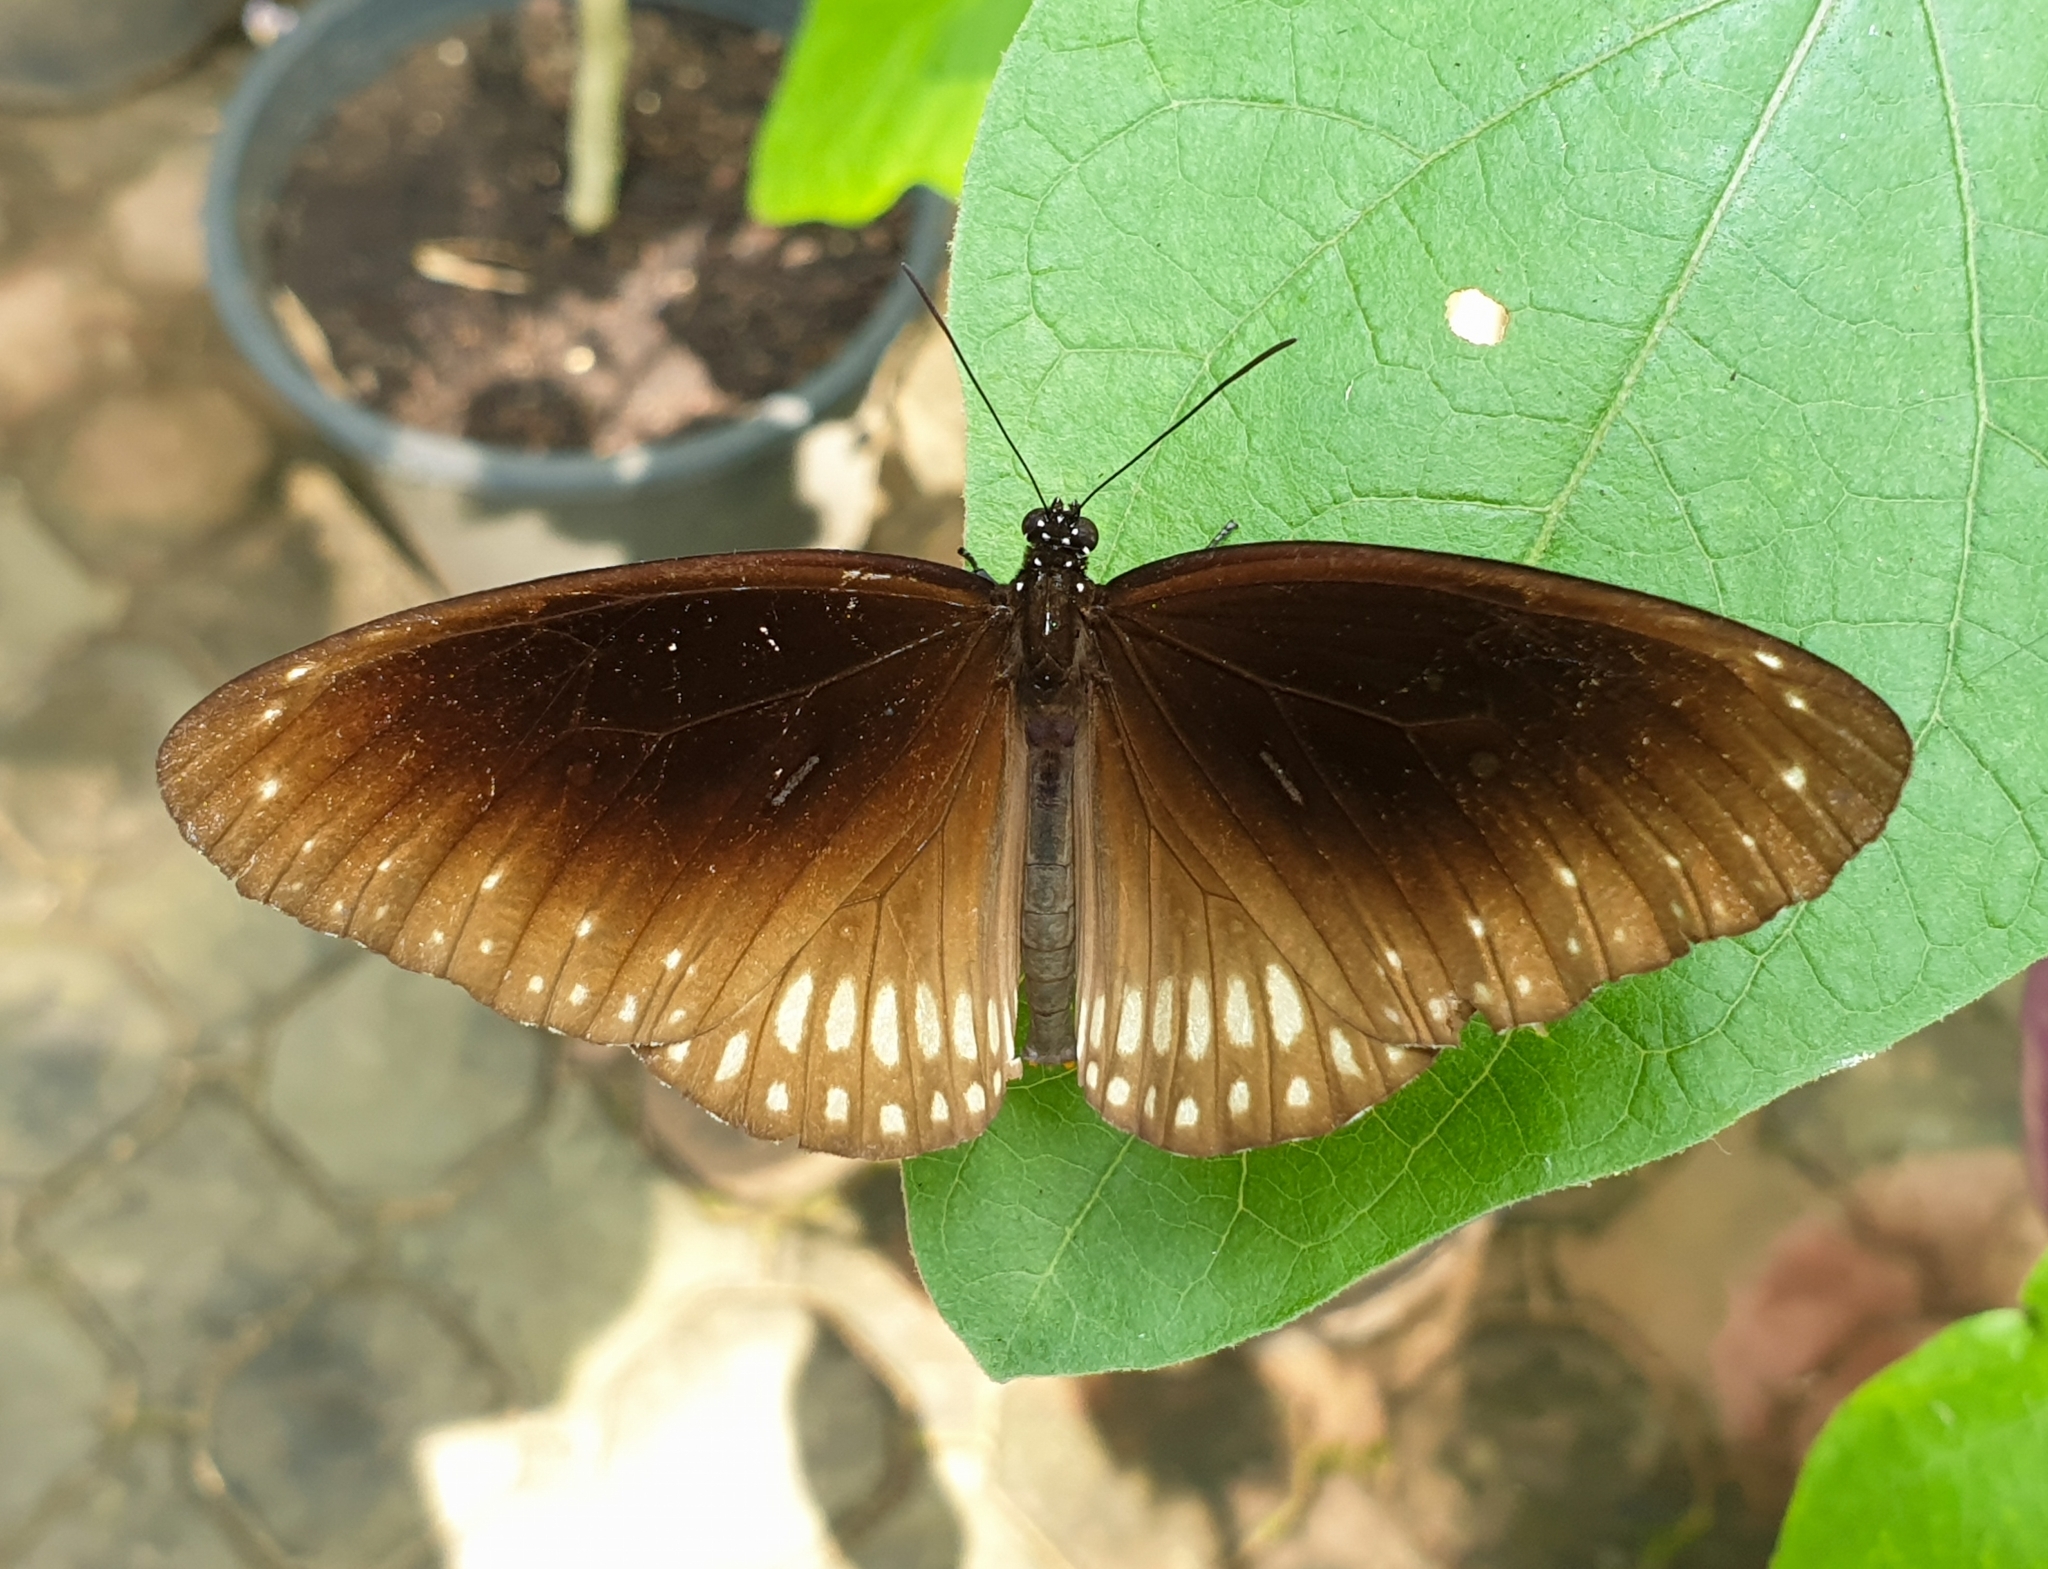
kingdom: Animalia
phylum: Arthropoda
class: Insecta
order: Lepidoptera
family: Nymphalidae
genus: Euploea
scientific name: Euploea core
